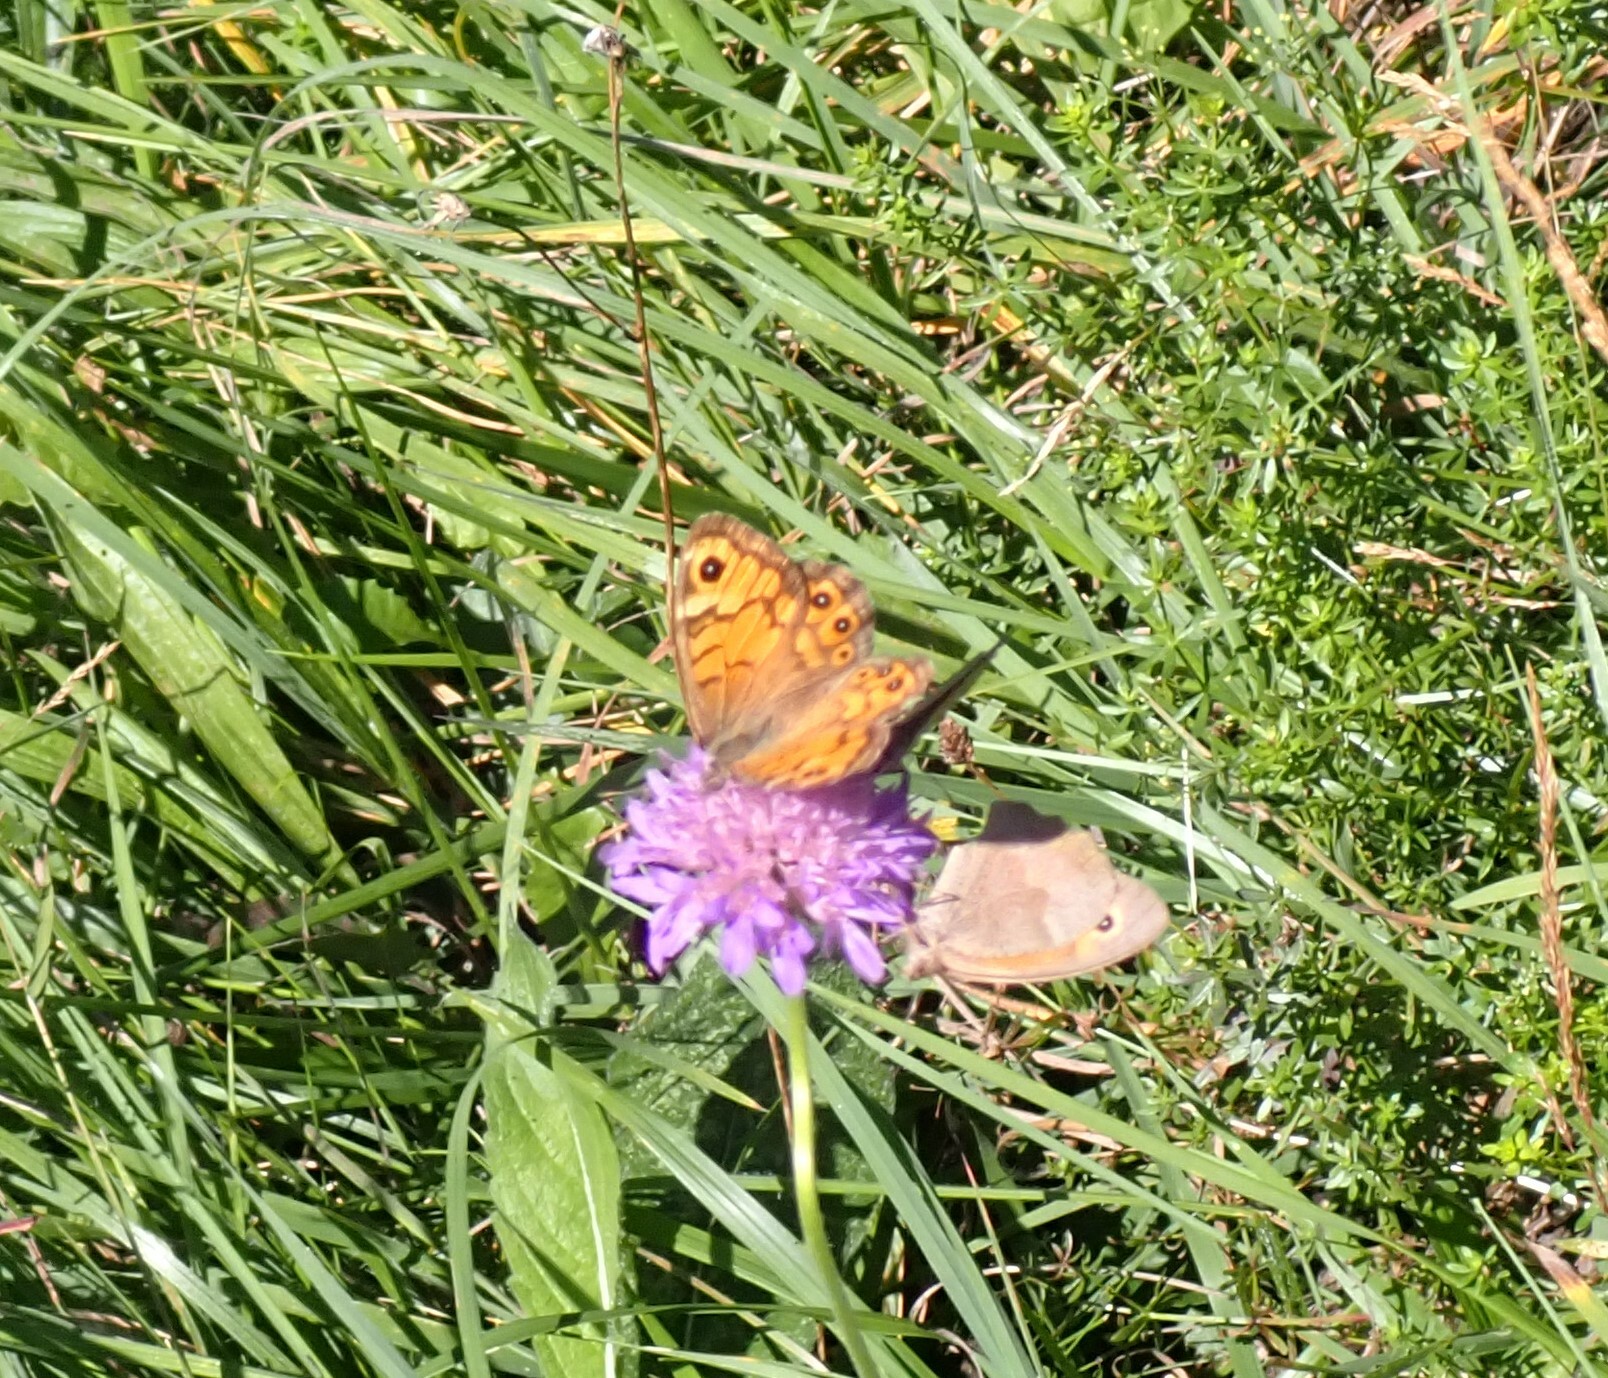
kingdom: Animalia
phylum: Arthropoda
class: Insecta
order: Lepidoptera
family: Nymphalidae
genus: Pararge
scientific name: Pararge Lasiommata megera
